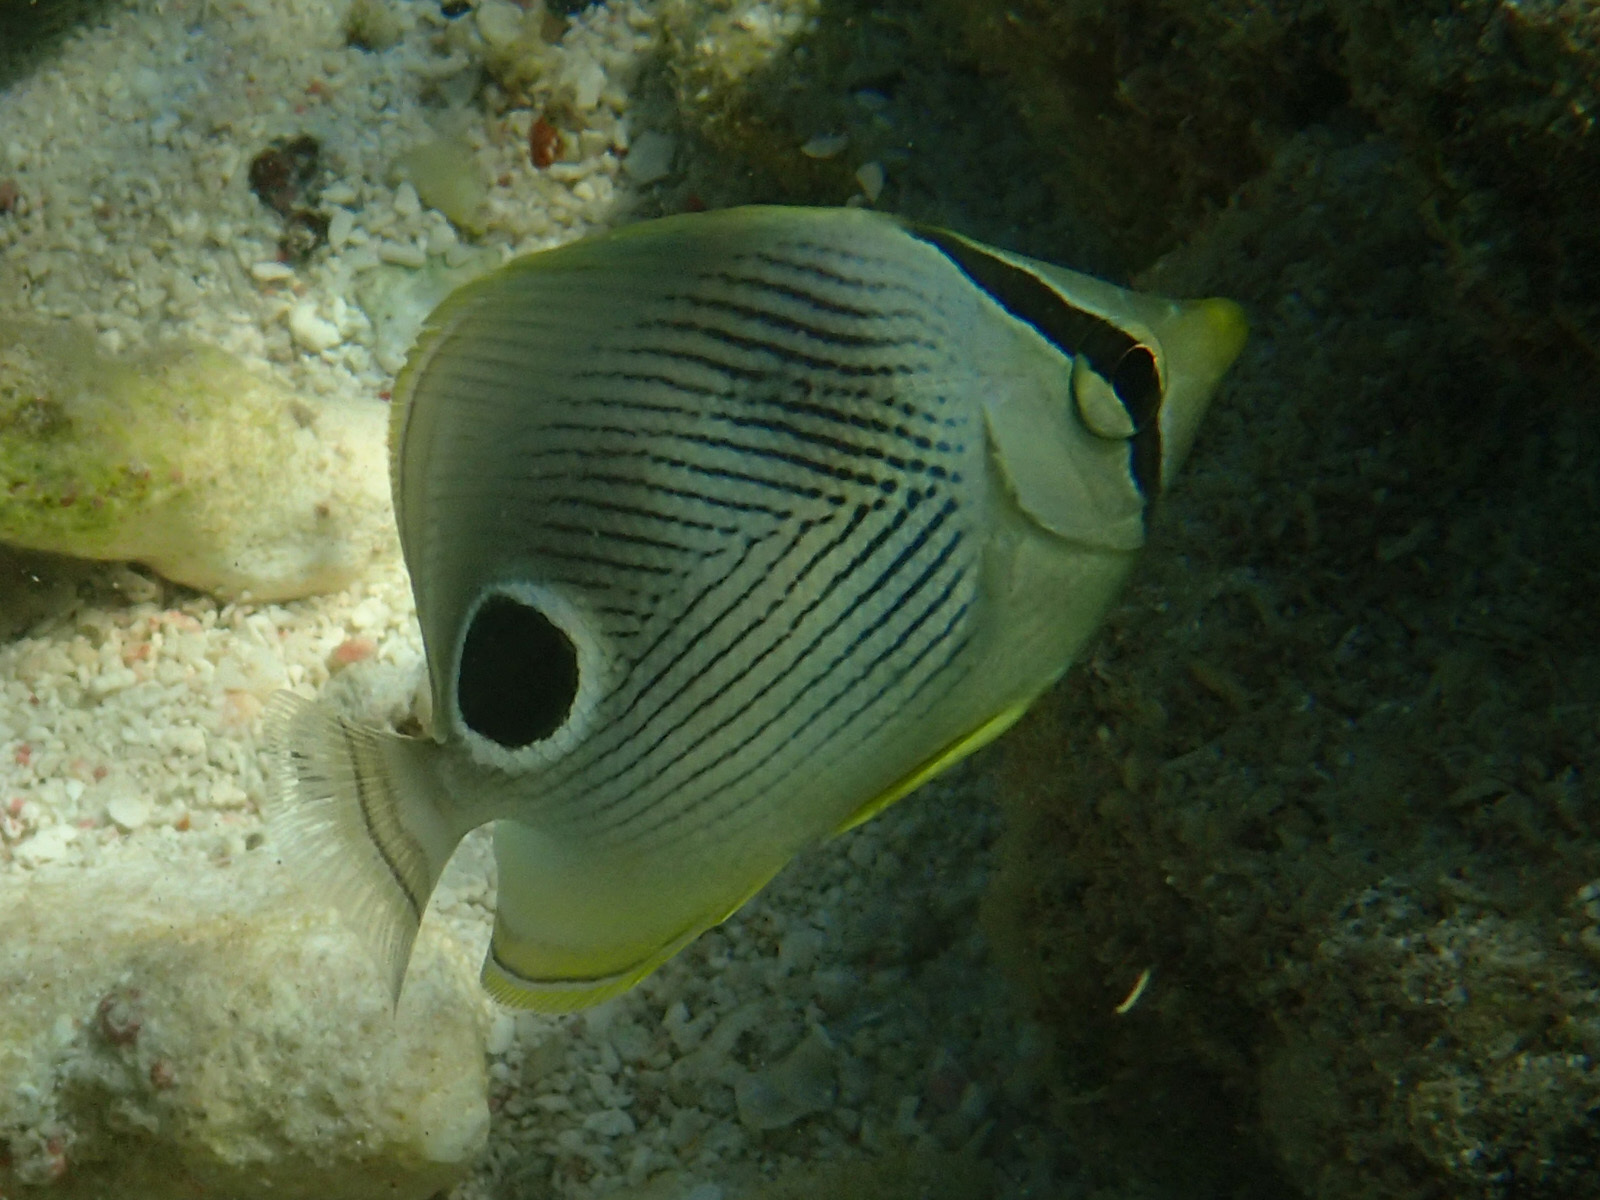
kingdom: Animalia
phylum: Chordata
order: Perciformes
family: Chaetodontidae
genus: Chaetodon
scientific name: Chaetodon capistratus
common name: Kete
